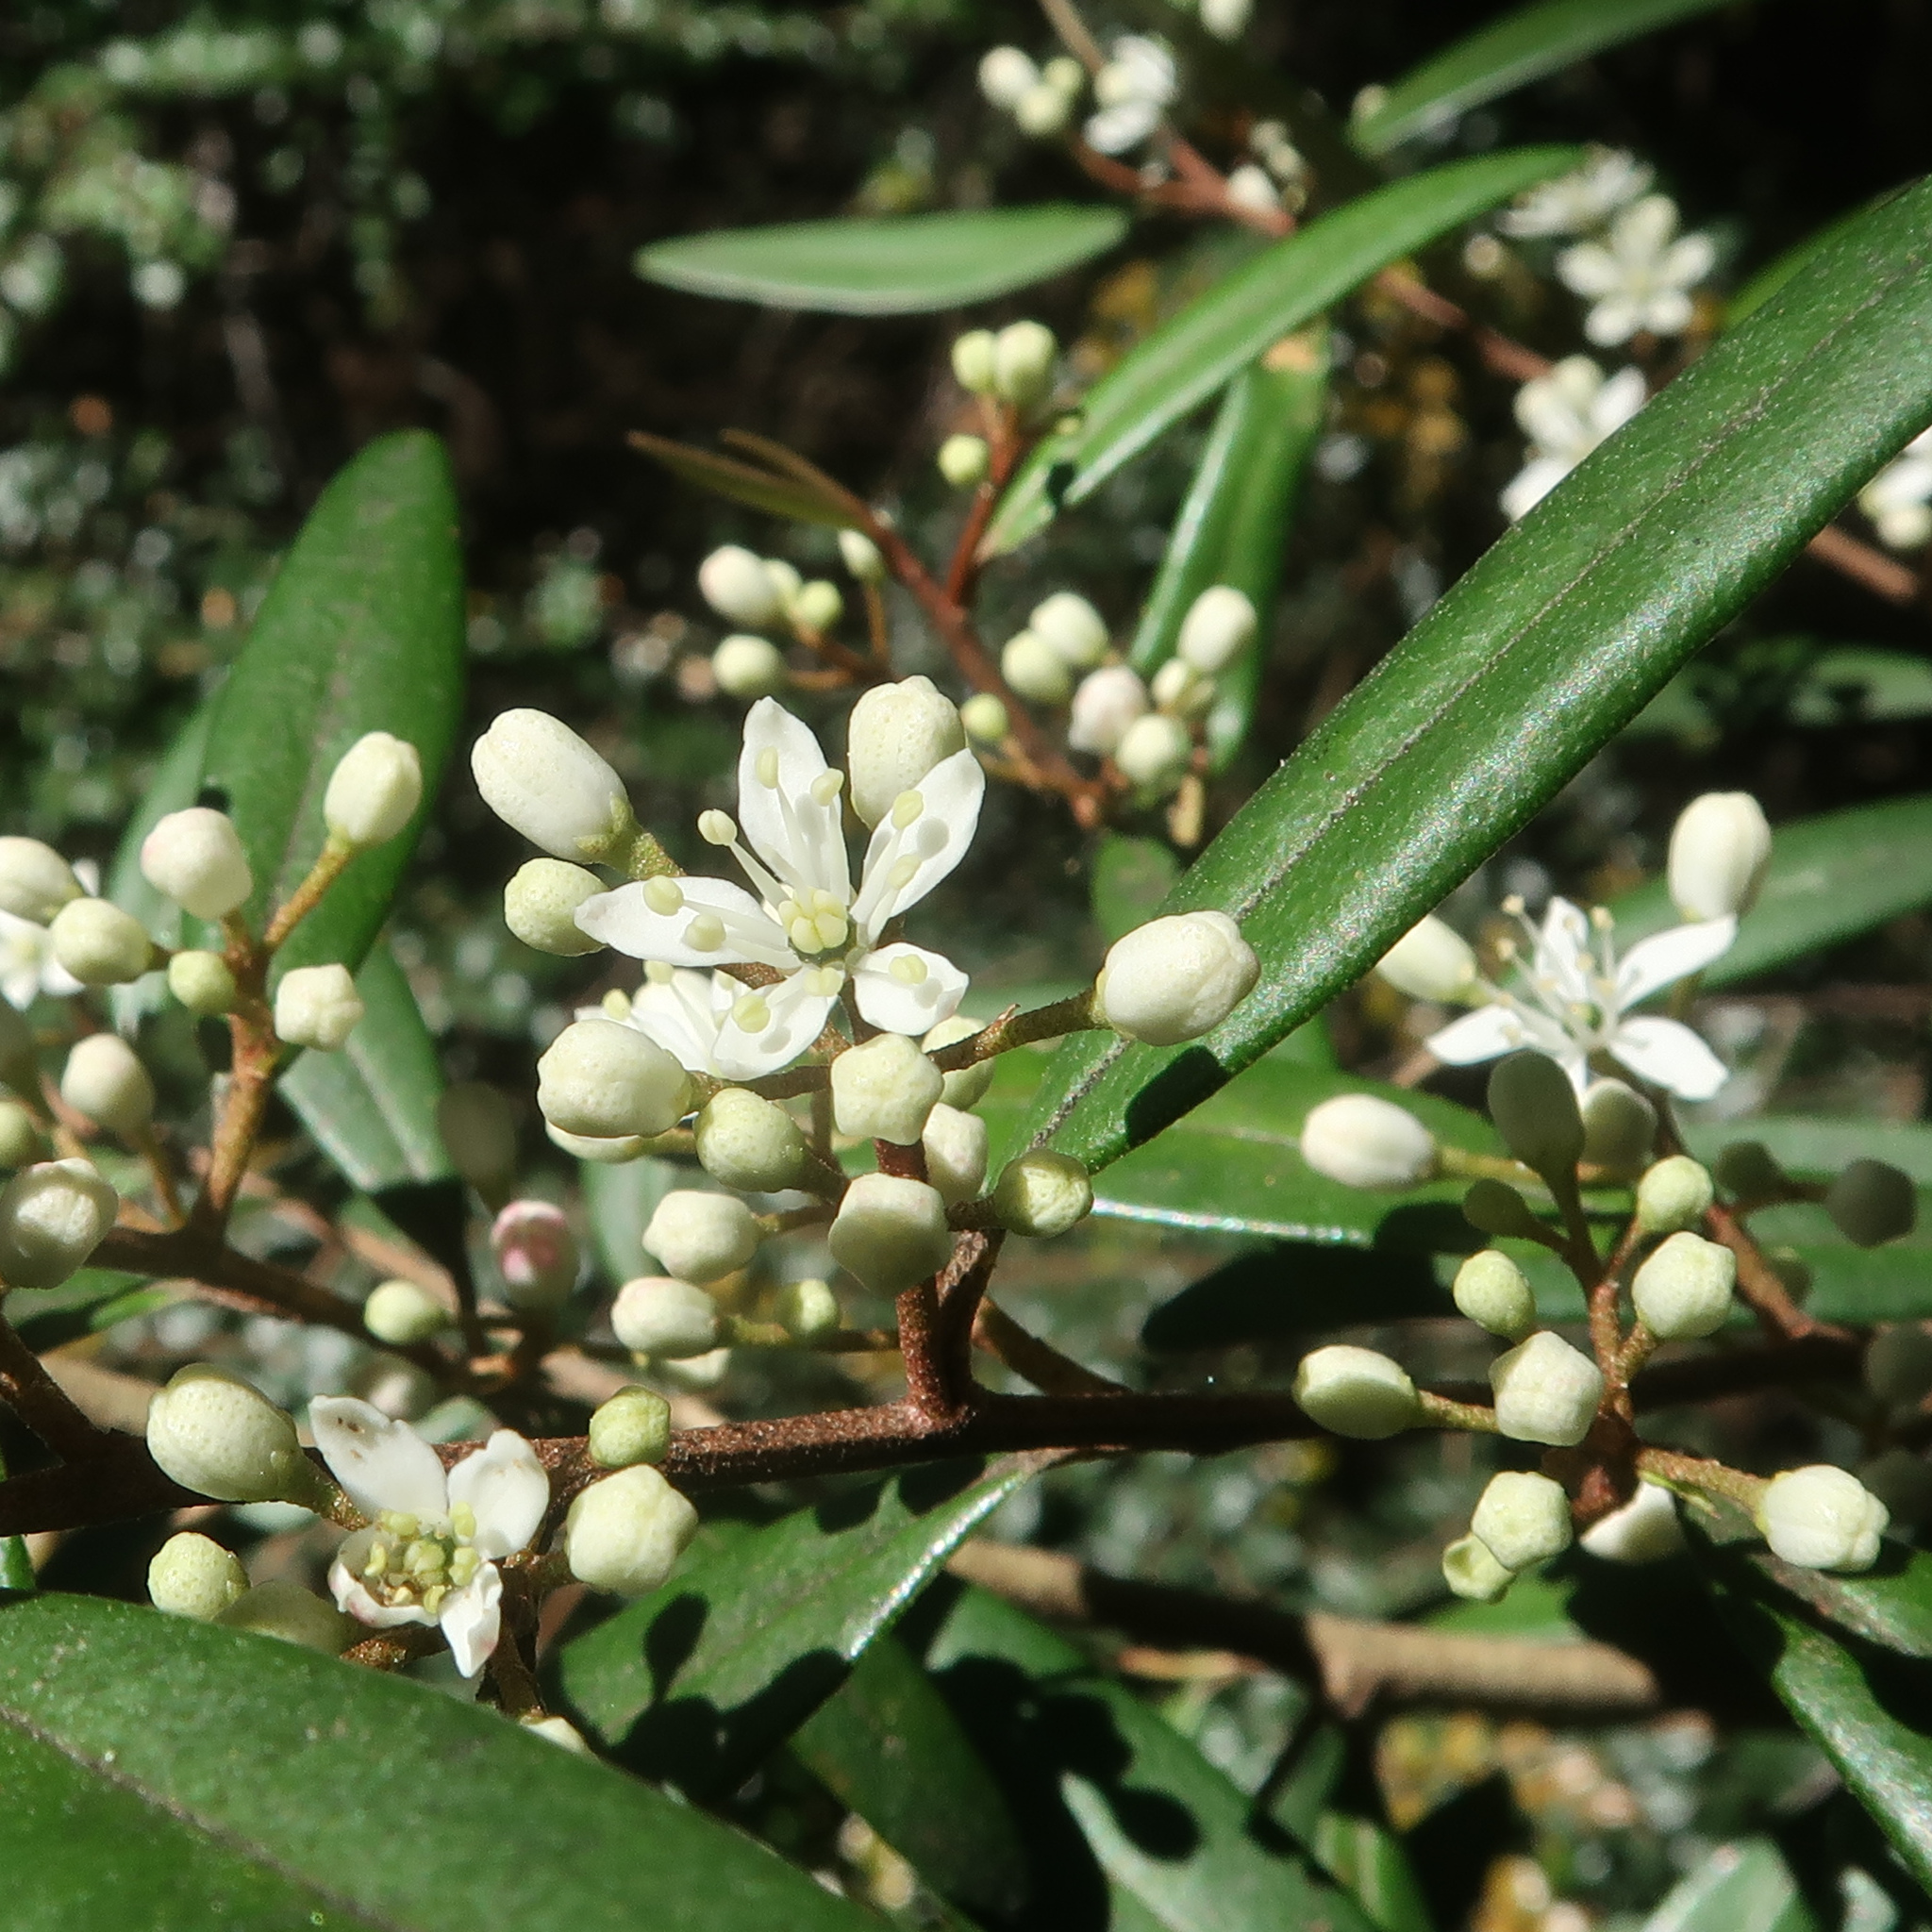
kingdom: Plantae
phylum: Tracheophyta
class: Magnoliopsida
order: Sapindales
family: Rutaceae
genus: Nematolepis
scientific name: Nematolepis squamea
